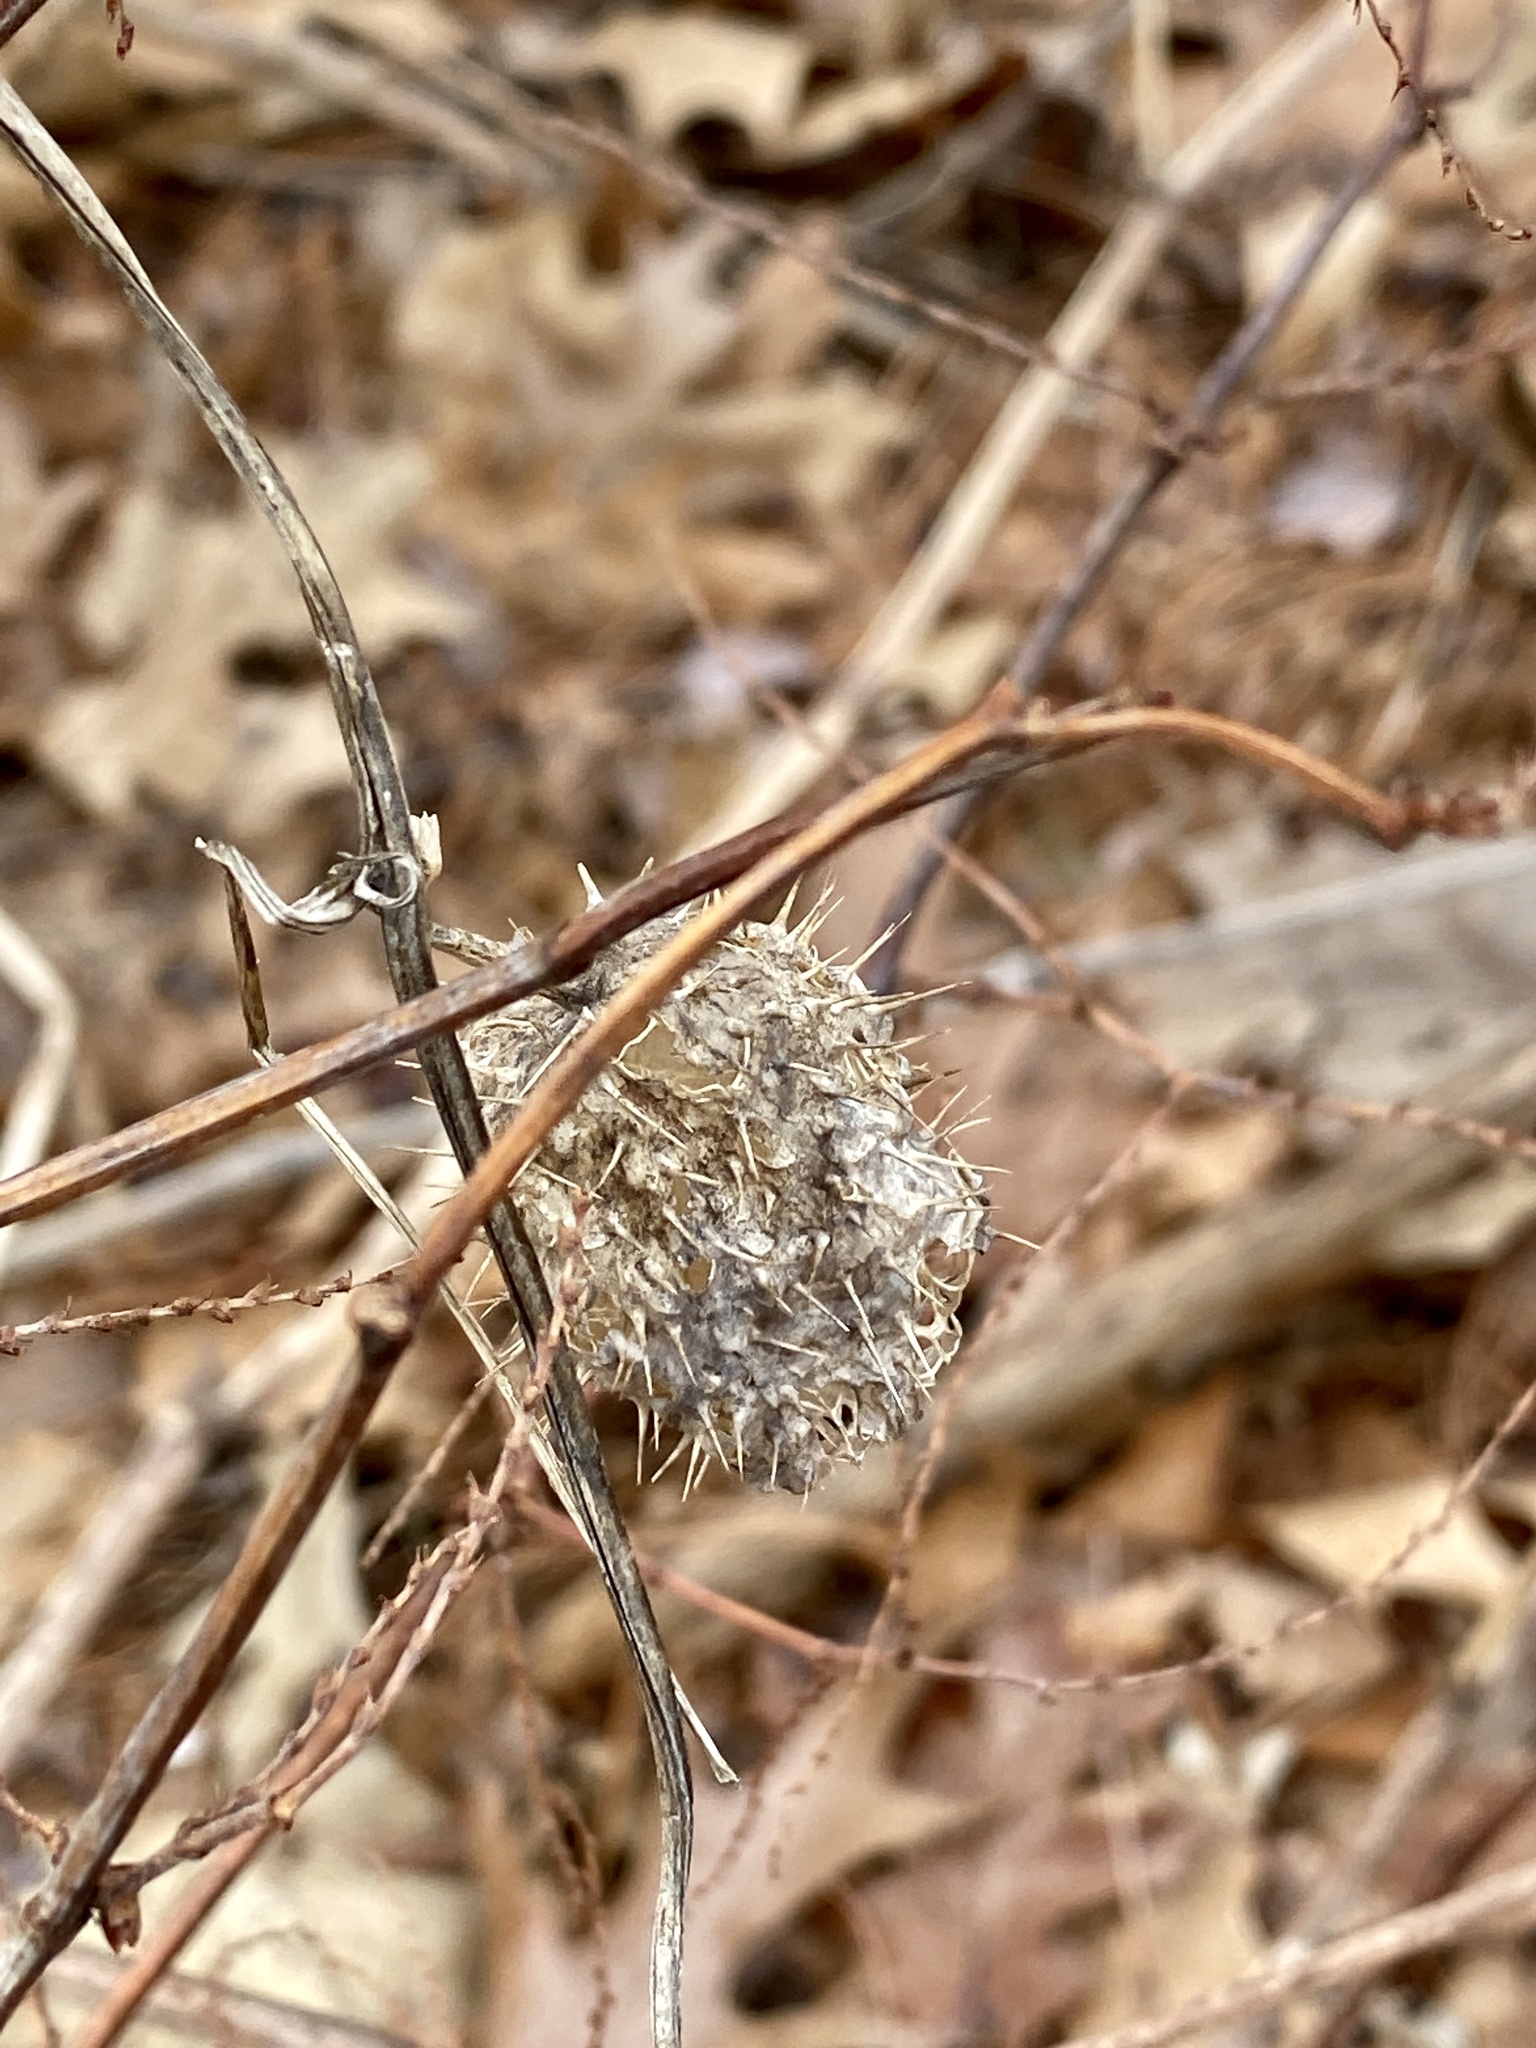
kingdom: Plantae
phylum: Tracheophyta
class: Magnoliopsida
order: Cucurbitales
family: Cucurbitaceae
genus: Echinocystis
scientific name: Echinocystis lobata
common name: Wild cucumber
